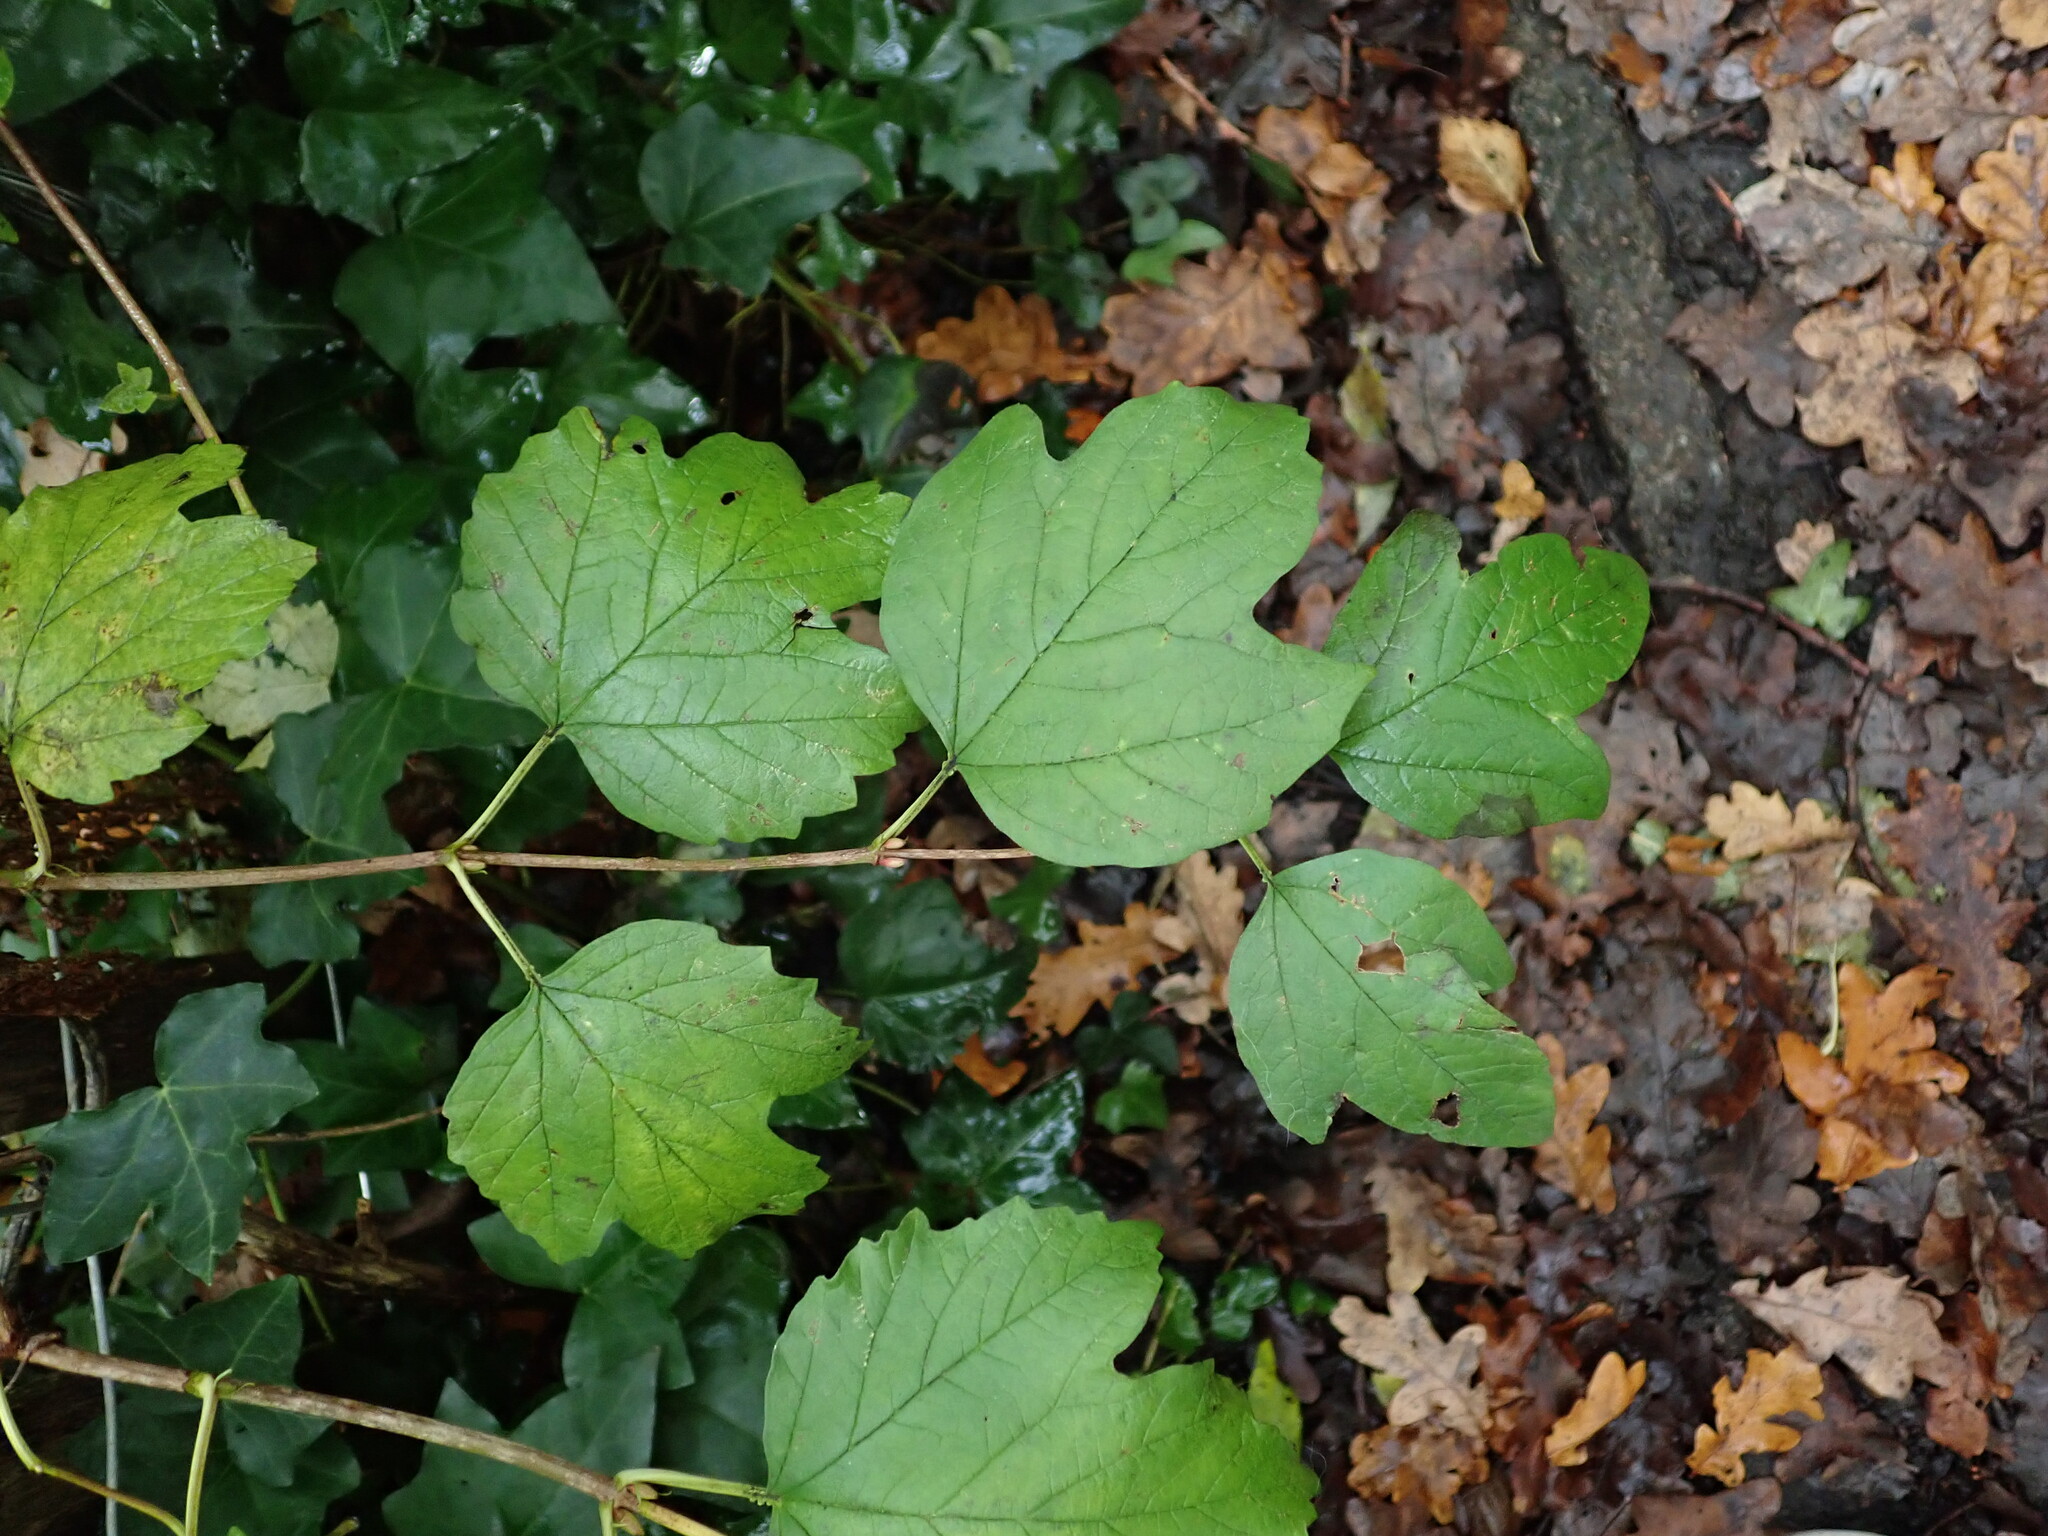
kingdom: Plantae
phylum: Tracheophyta
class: Magnoliopsida
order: Dipsacales
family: Viburnaceae
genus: Viburnum
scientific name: Viburnum opulus
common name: Guelder-rose
